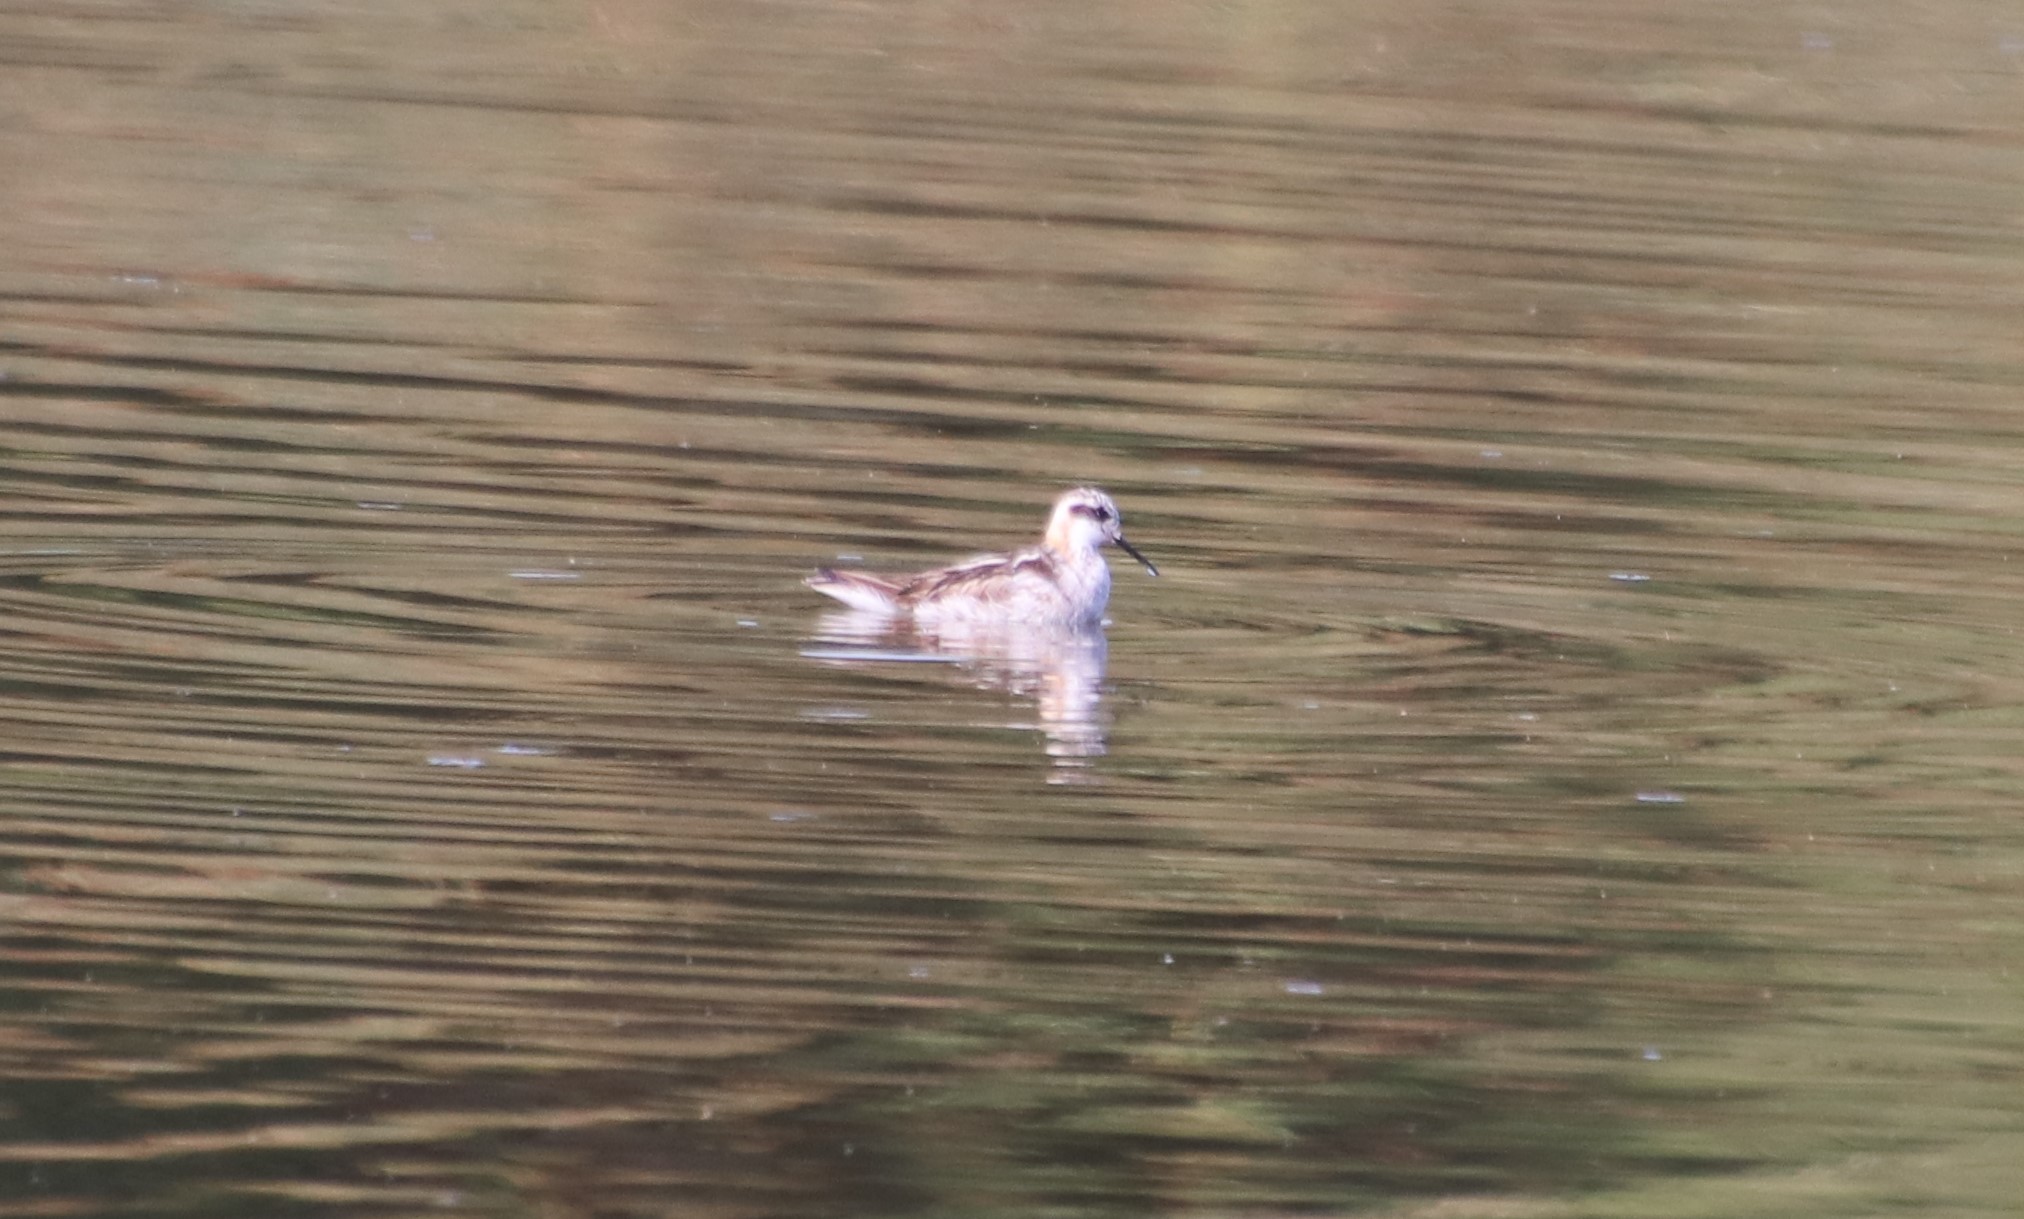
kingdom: Animalia
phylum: Chordata
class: Aves
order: Charadriiformes
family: Scolopacidae
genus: Phalaropus
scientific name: Phalaropus lobatus
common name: Red-necked phalarope
